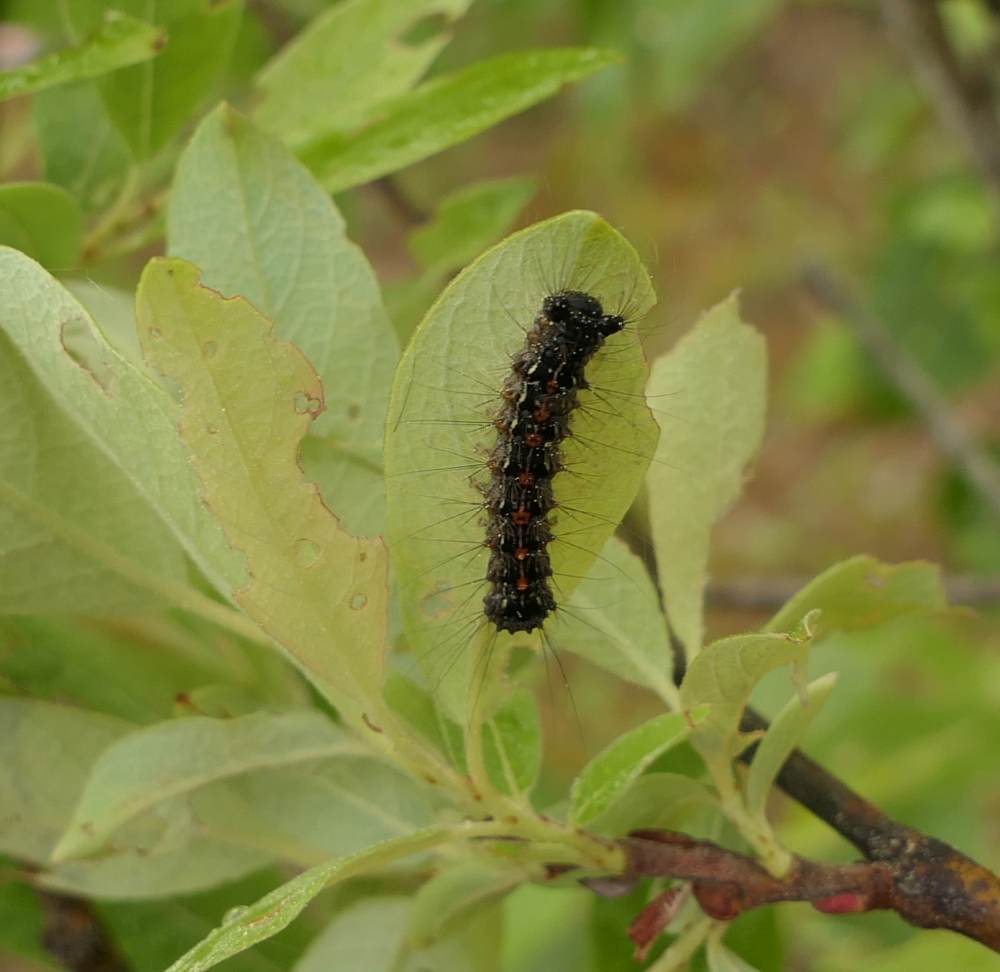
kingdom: Animalia
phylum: Arthropoda
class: Insecta
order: Lepidoptera
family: Erebidae
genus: Lymantria
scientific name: Lymantria dispar
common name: Gypsy moth
